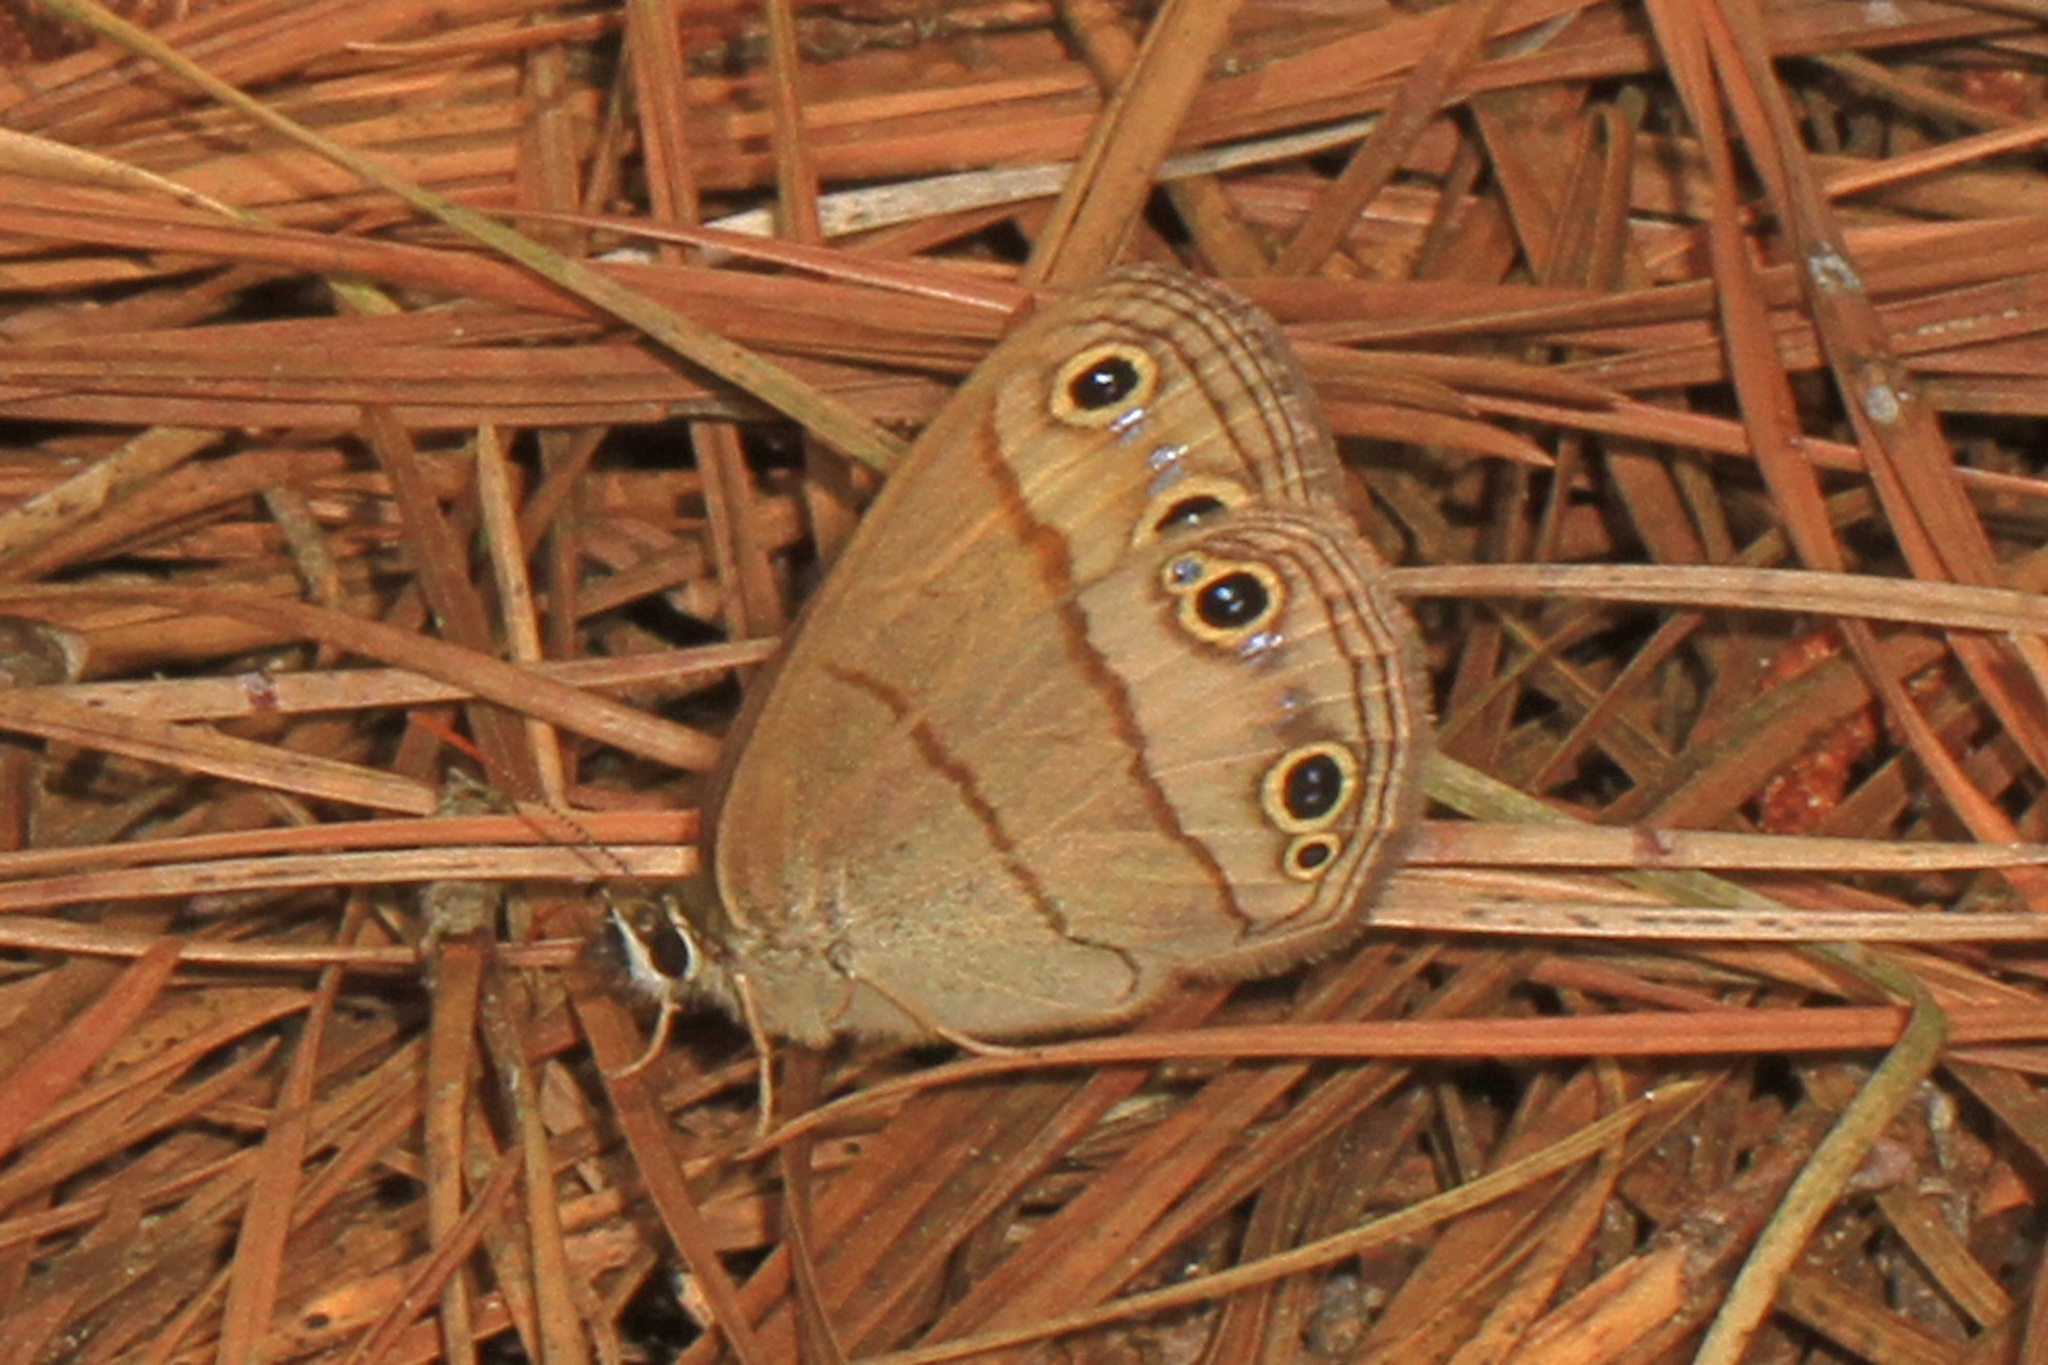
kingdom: Animalia
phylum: Arthropoda
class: Insecta
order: Lepidoptera
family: Nymphalidae
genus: Euptychia
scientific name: Euptychia cymela
